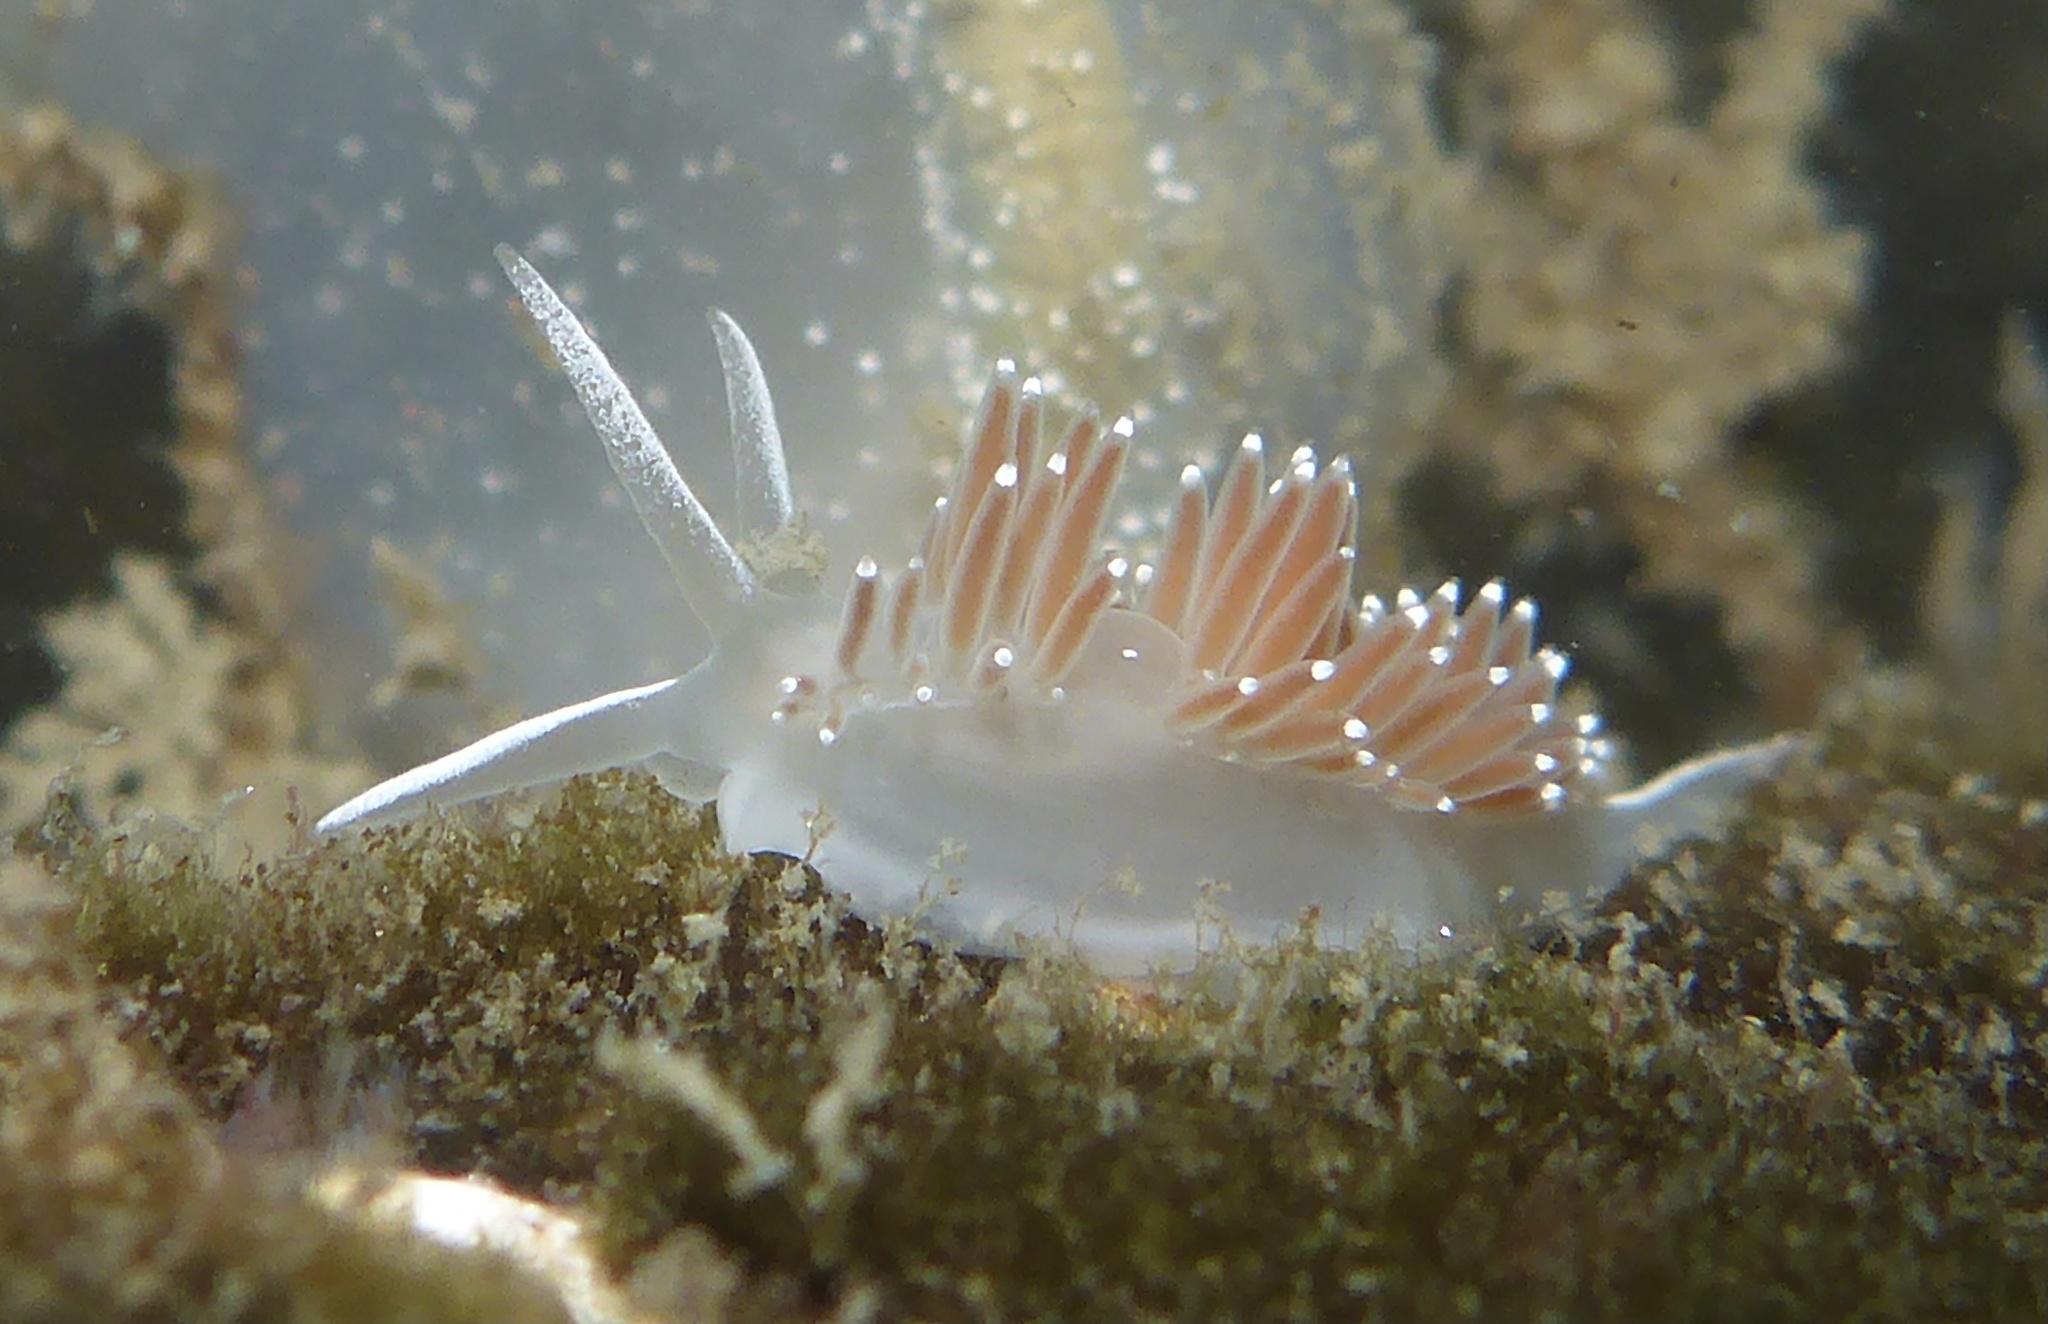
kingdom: Animalia
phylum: Mollusca
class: Gastropoda
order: Nudibranchia
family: Coryphellidae
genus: Coryphella
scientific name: Coryphella verrucosa
